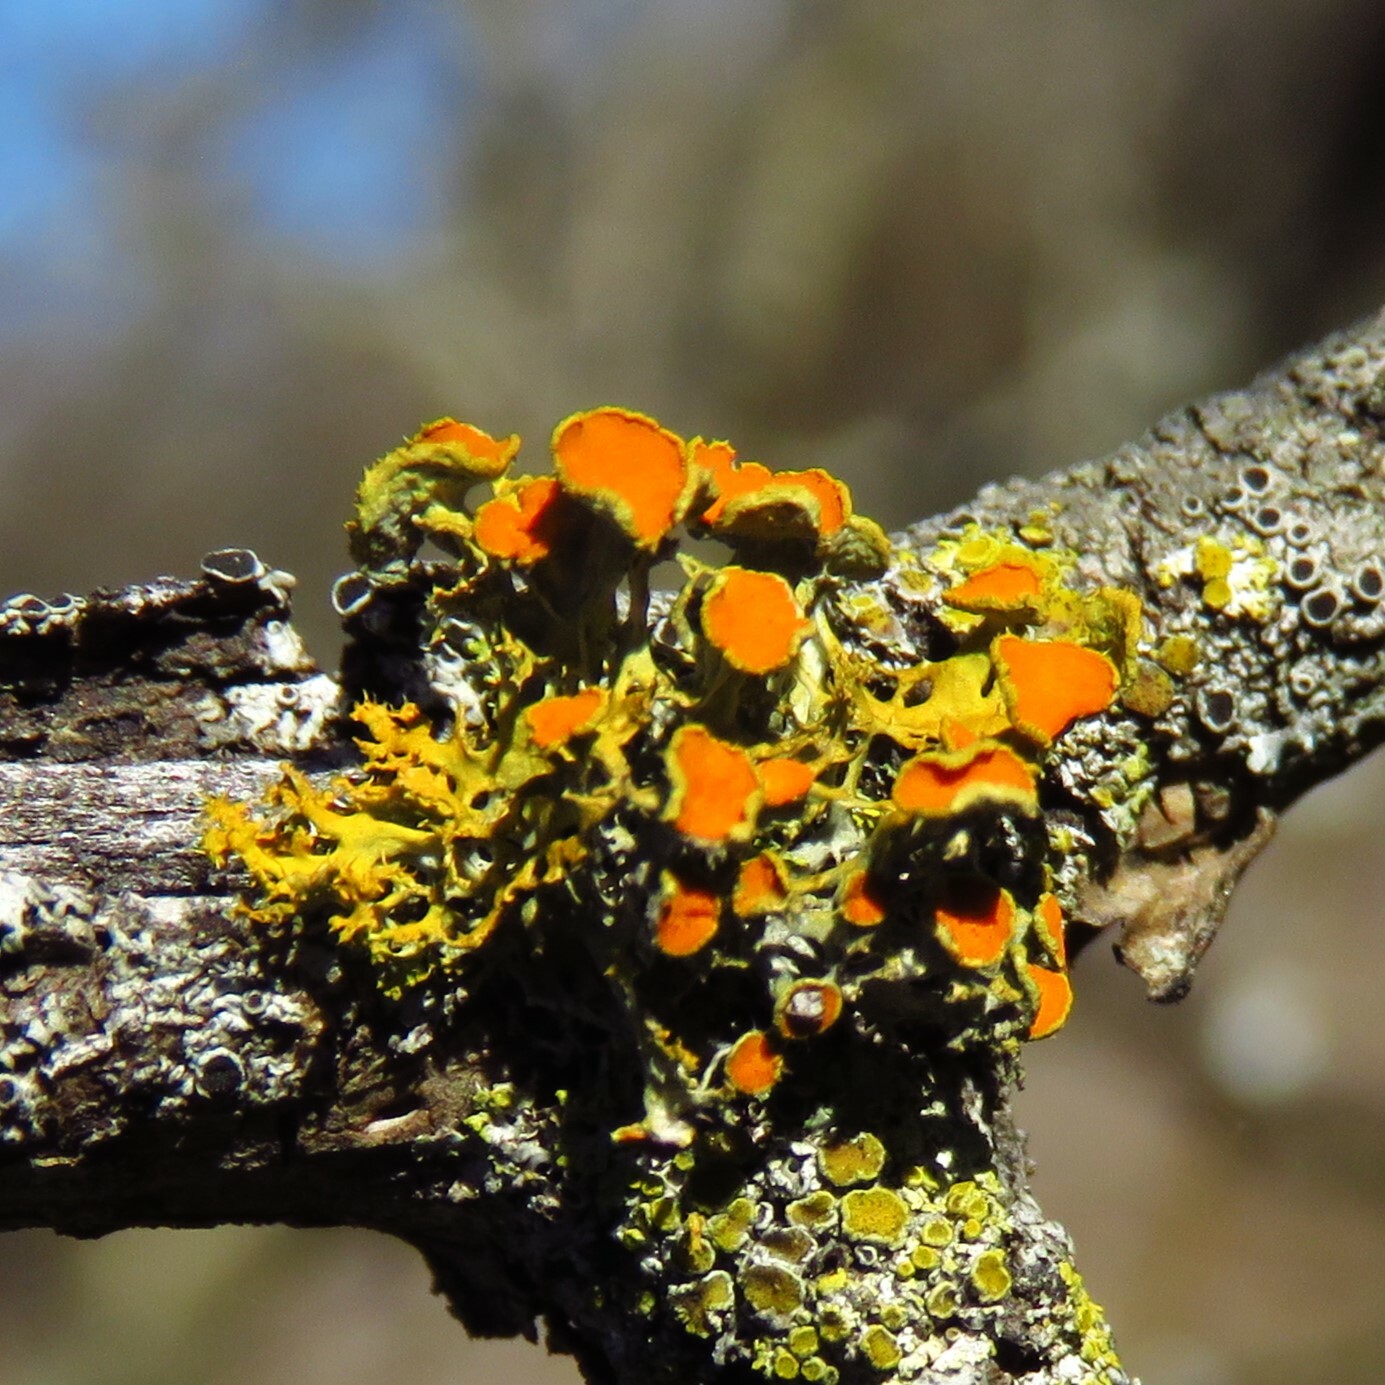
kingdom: Fungi
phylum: Ascomycota
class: Lecanoromycetes
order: Teloschistales
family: Teloschistaceae
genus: Niorma
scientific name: Niorma chrysophthalma
